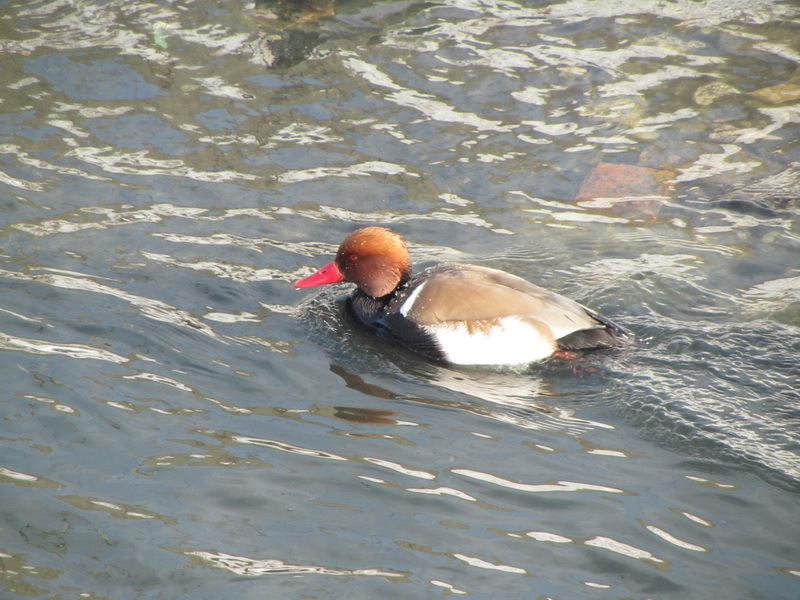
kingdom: Animalia
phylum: Chordata
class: Aves
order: Anseriformes
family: Anatidae
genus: Netta
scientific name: Netta rufina
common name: Red-crested pochard
